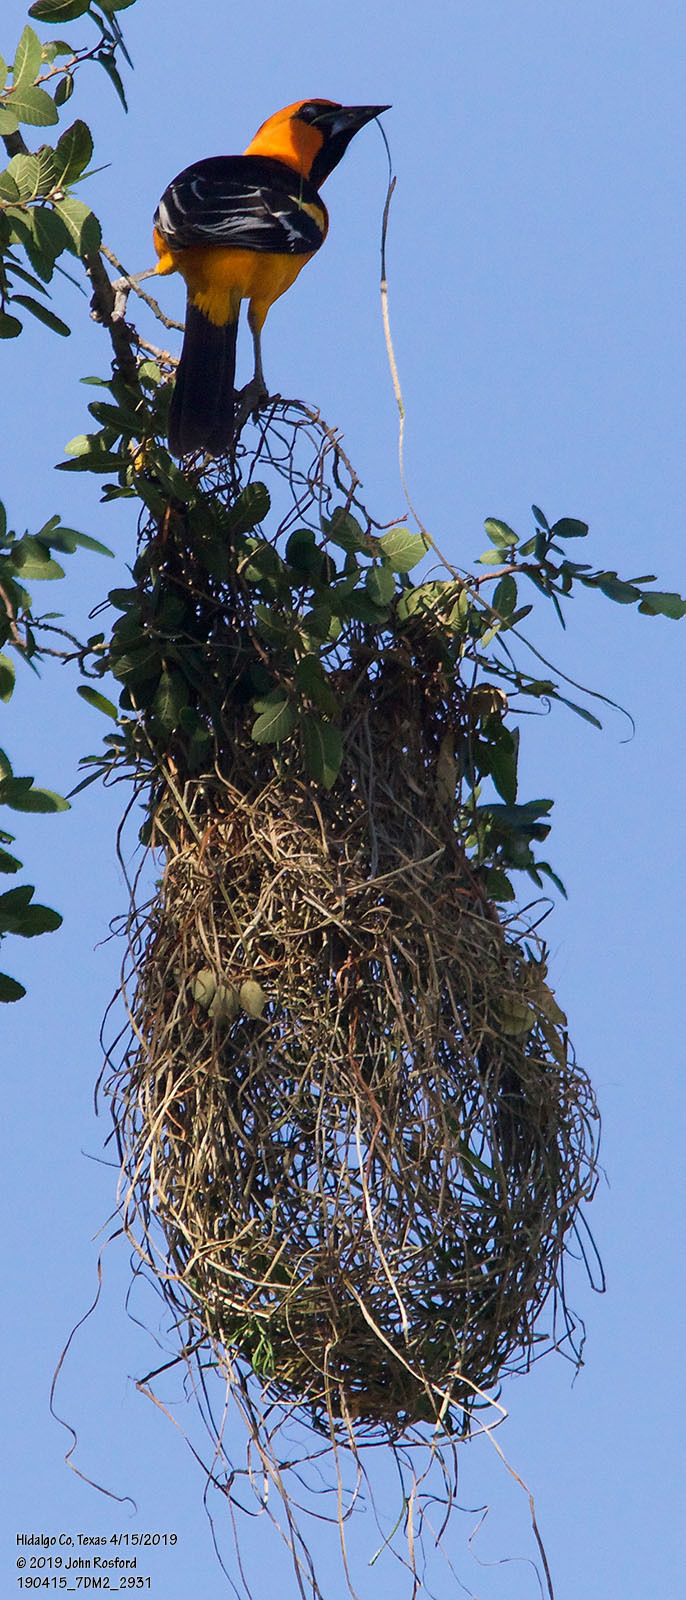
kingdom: Animalia
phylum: Chordata
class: Aves
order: Passeriformes
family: Icteridae
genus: Icterus
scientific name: Icterus gularis
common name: Altamira oriole
